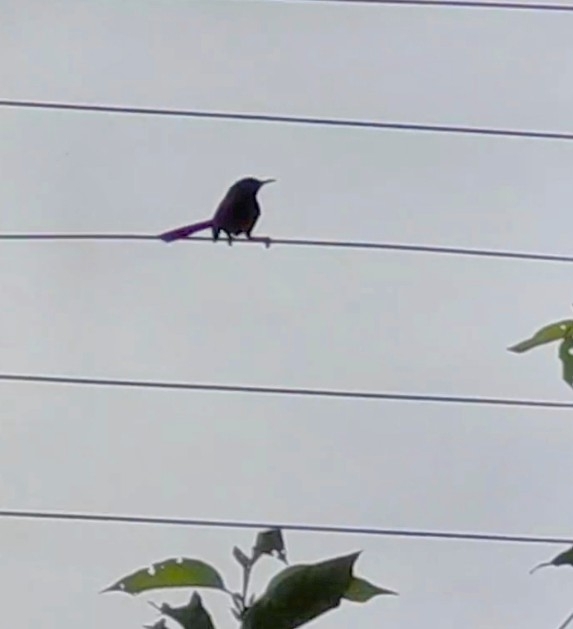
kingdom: Animalia
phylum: Chordata
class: Aves
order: Passeriformes
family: Muscicapidae
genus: Saxicoloides
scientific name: Saxicoloides fulicatus
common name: Indian robin
